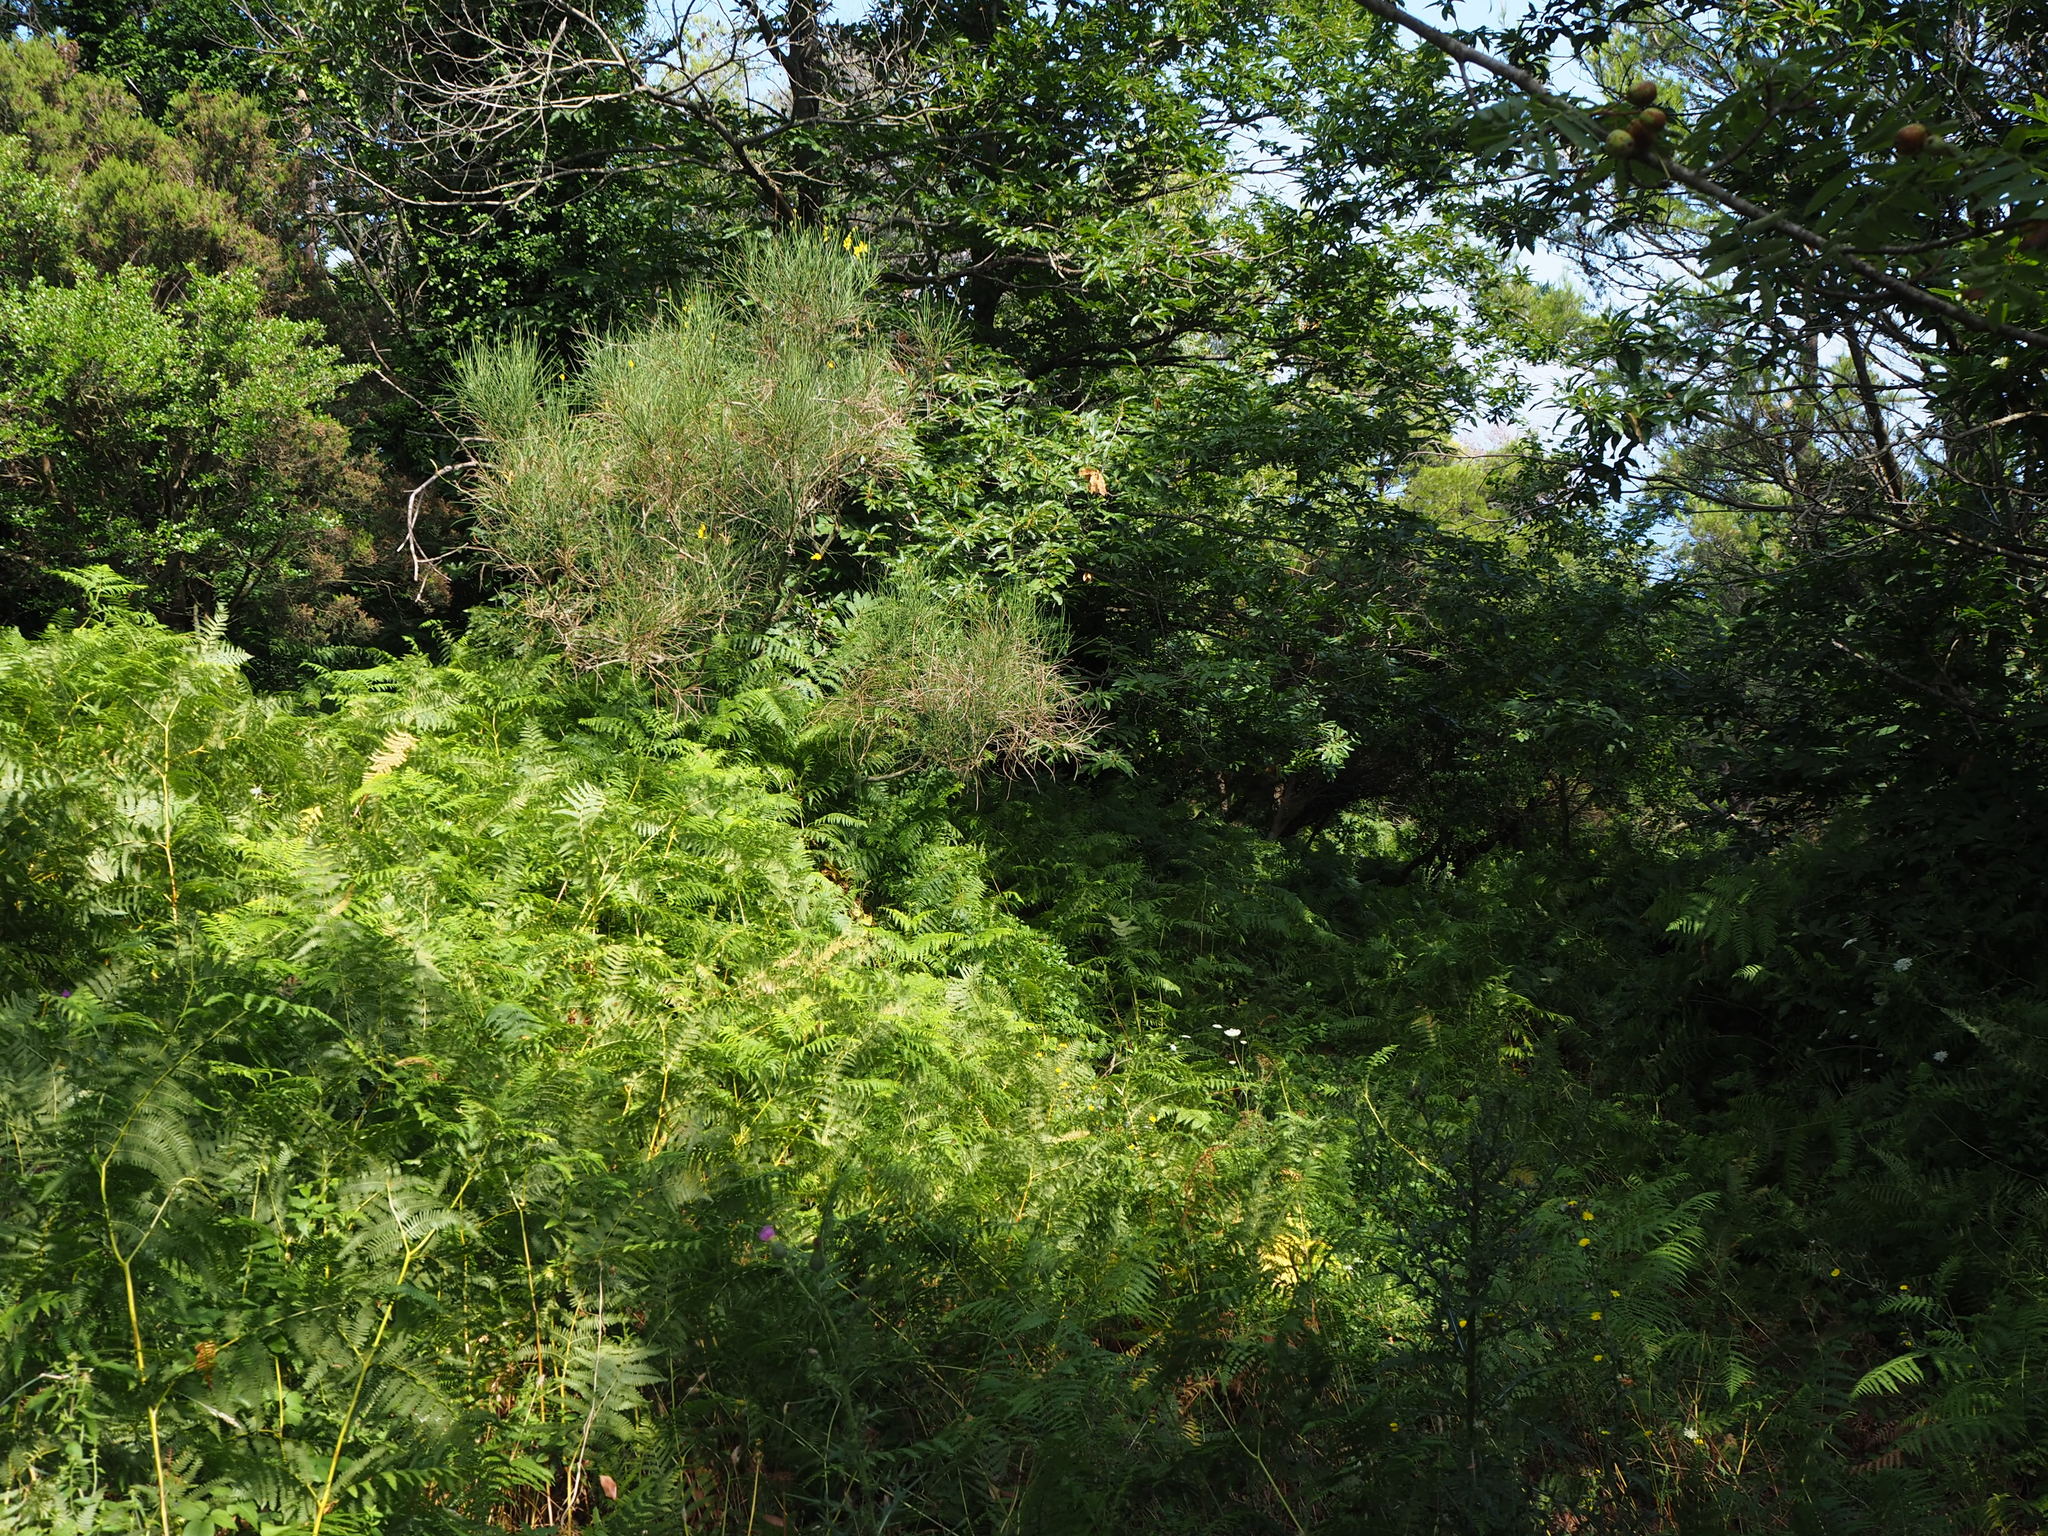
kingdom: Plantae
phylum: Tracheophyta
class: Polypodiopsida
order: Polypodiales
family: Dennstaedtiaceae
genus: Pteridium
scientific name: Pteridium aquilinum
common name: Bracken
